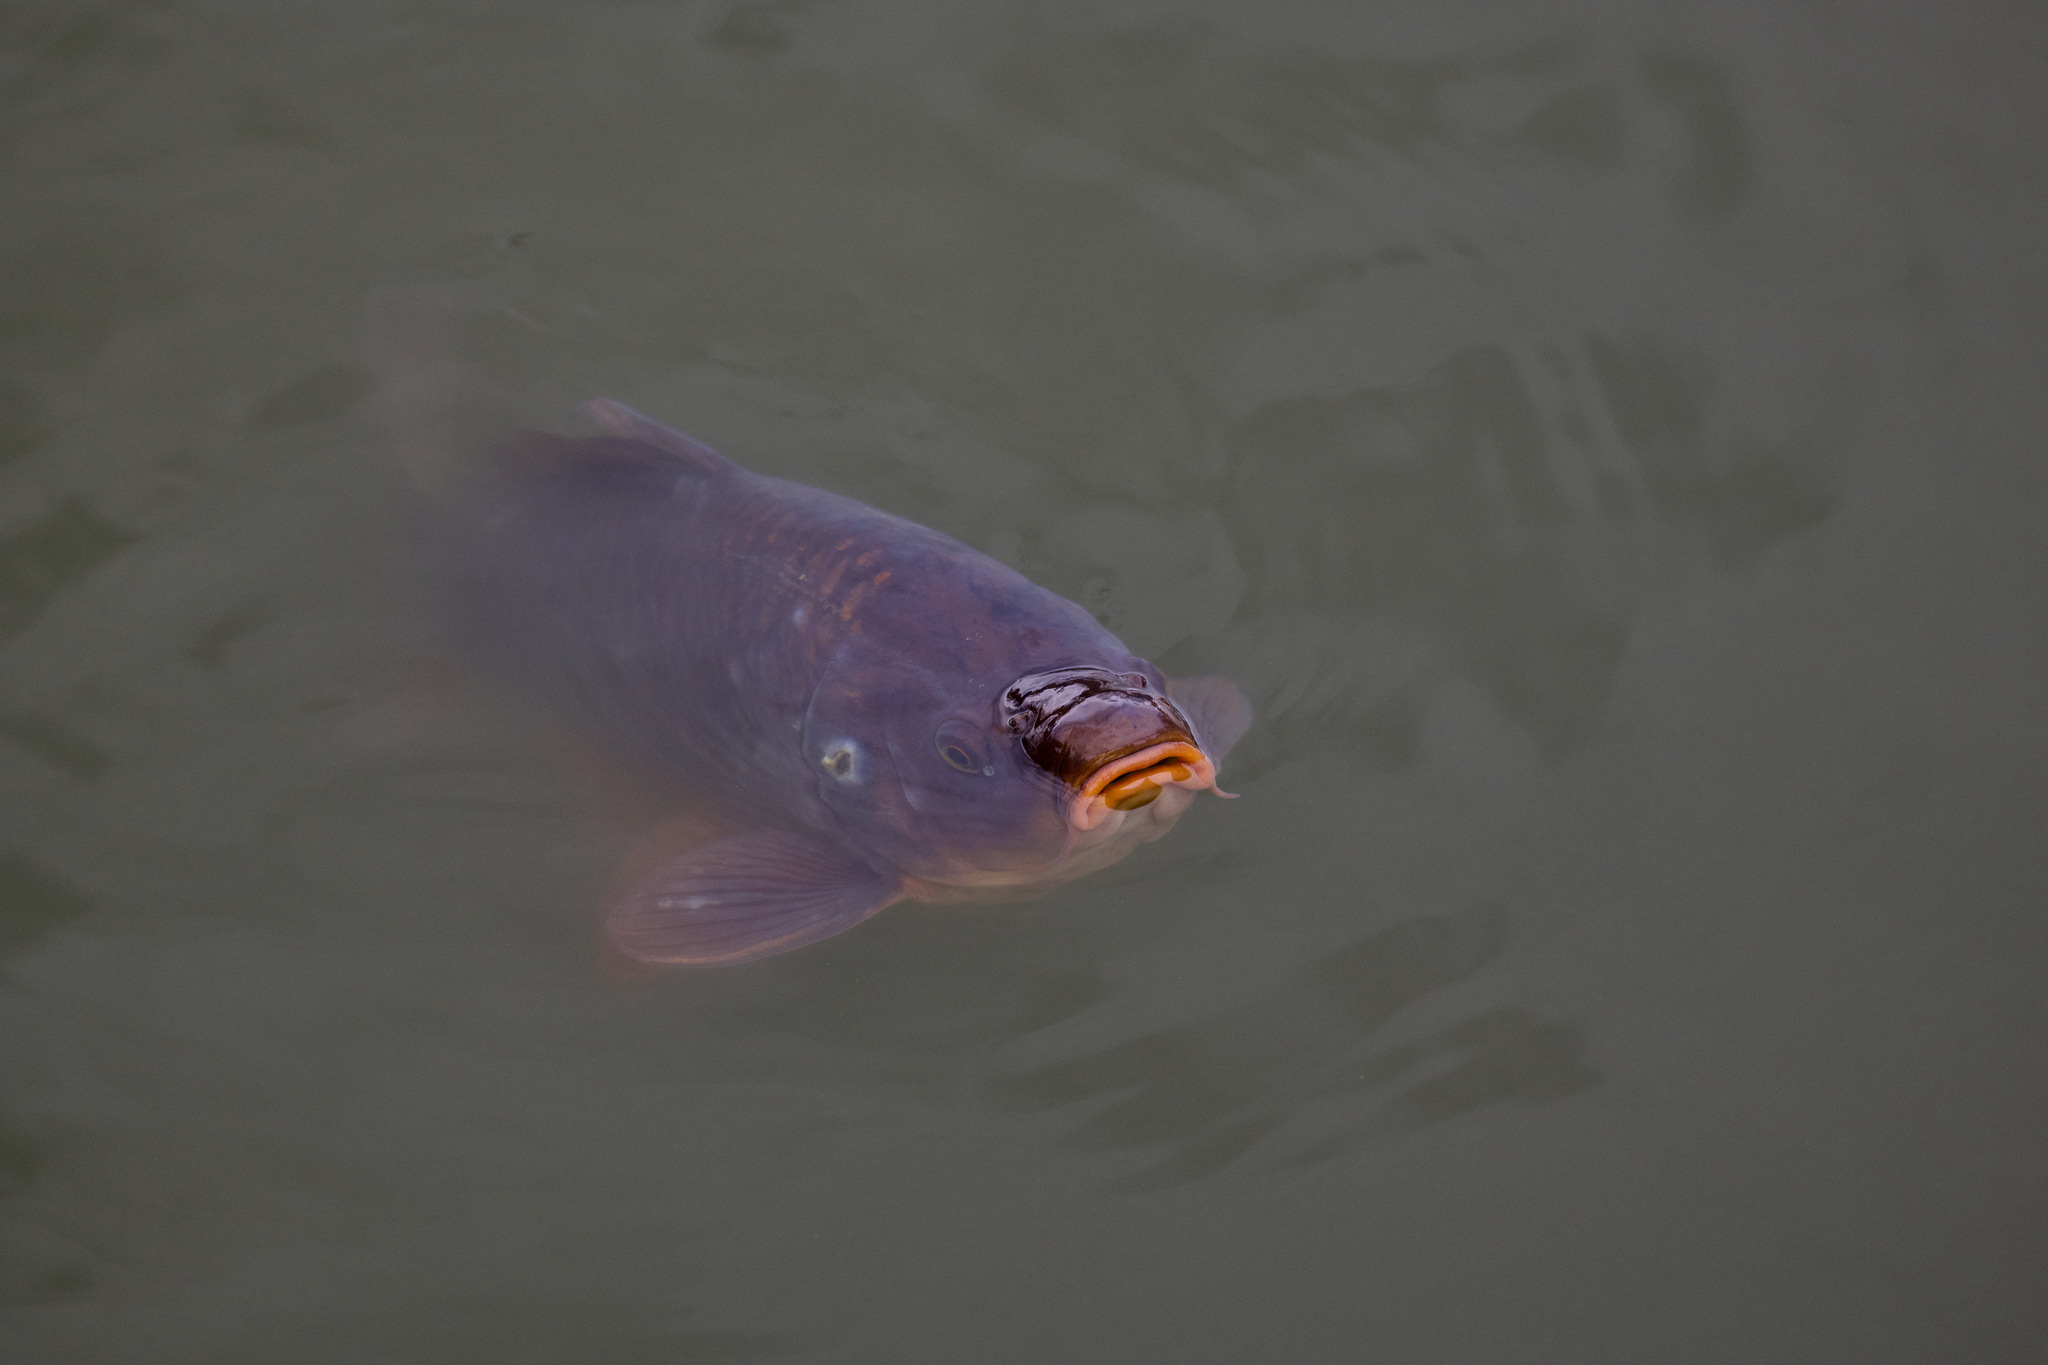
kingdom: Animalia
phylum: Chordata
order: Cypriniformes
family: Cyprinidae
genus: Cyprinus
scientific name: Cyprinus carpio
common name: Common carp
